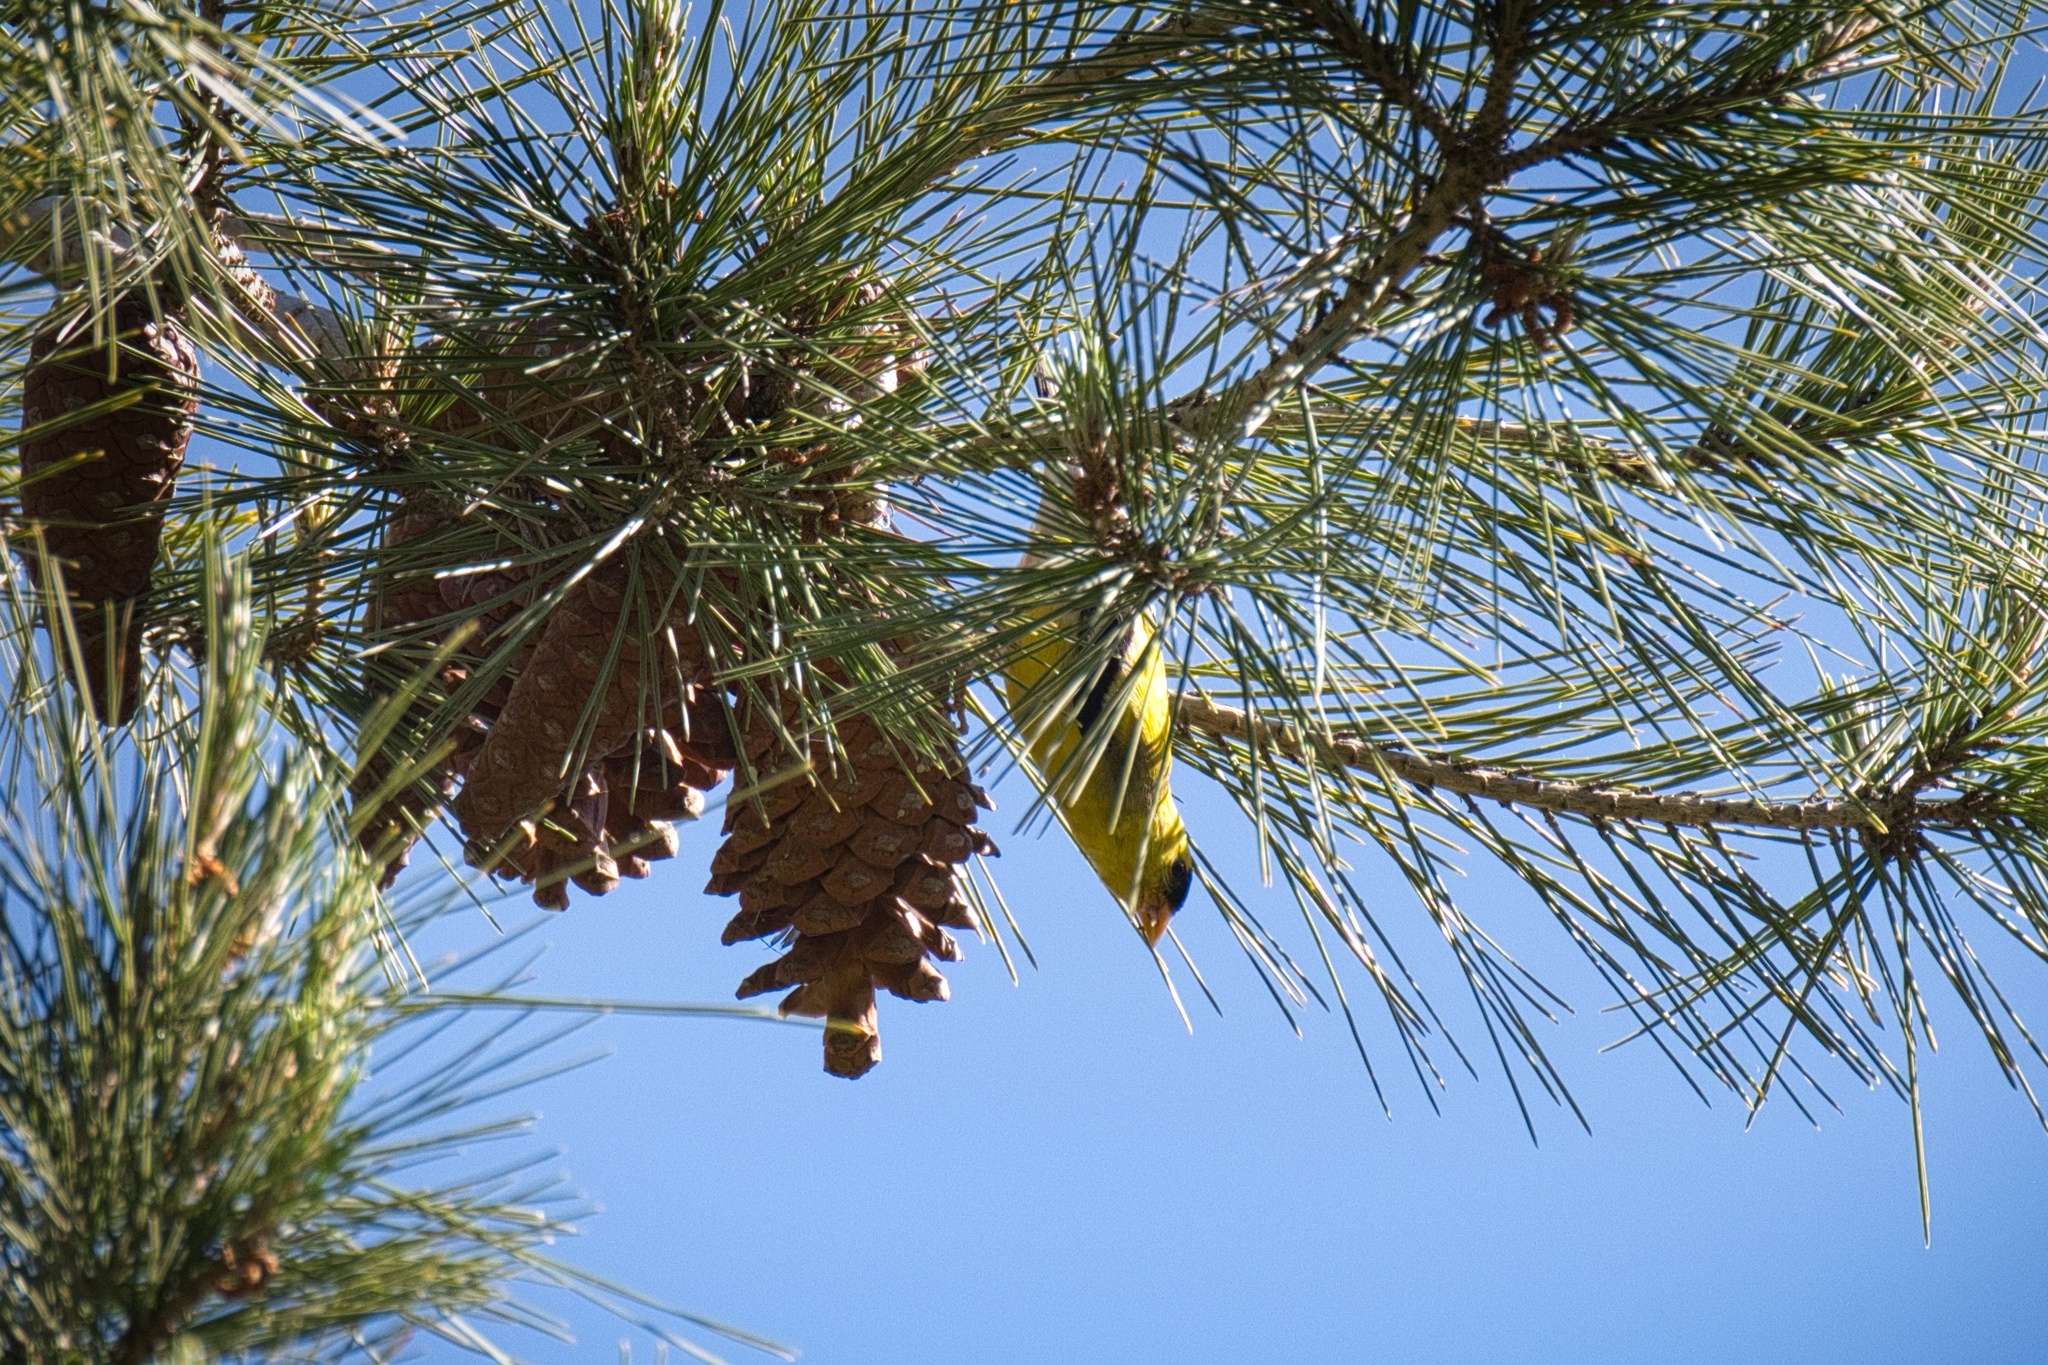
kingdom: Animalia
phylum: Chordata
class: Aves
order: Passeriformes
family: Fringillidae
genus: Spinus
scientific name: Spinus tristis
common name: American goldfinch
